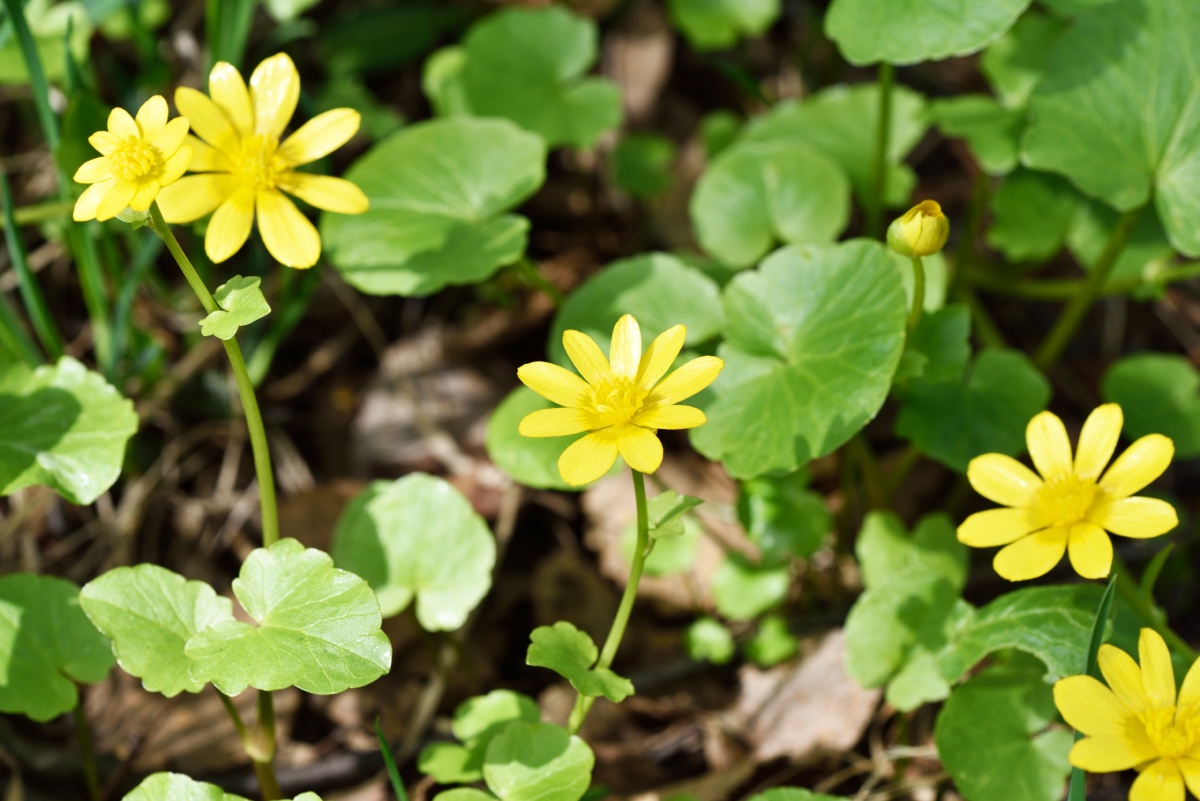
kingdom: Plantae
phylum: Tracheophyta
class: Magnoliopsida
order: Ranunculales
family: Ranunculaceae
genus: Ficaria
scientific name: Ficaria verna
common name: Lesser celandine
